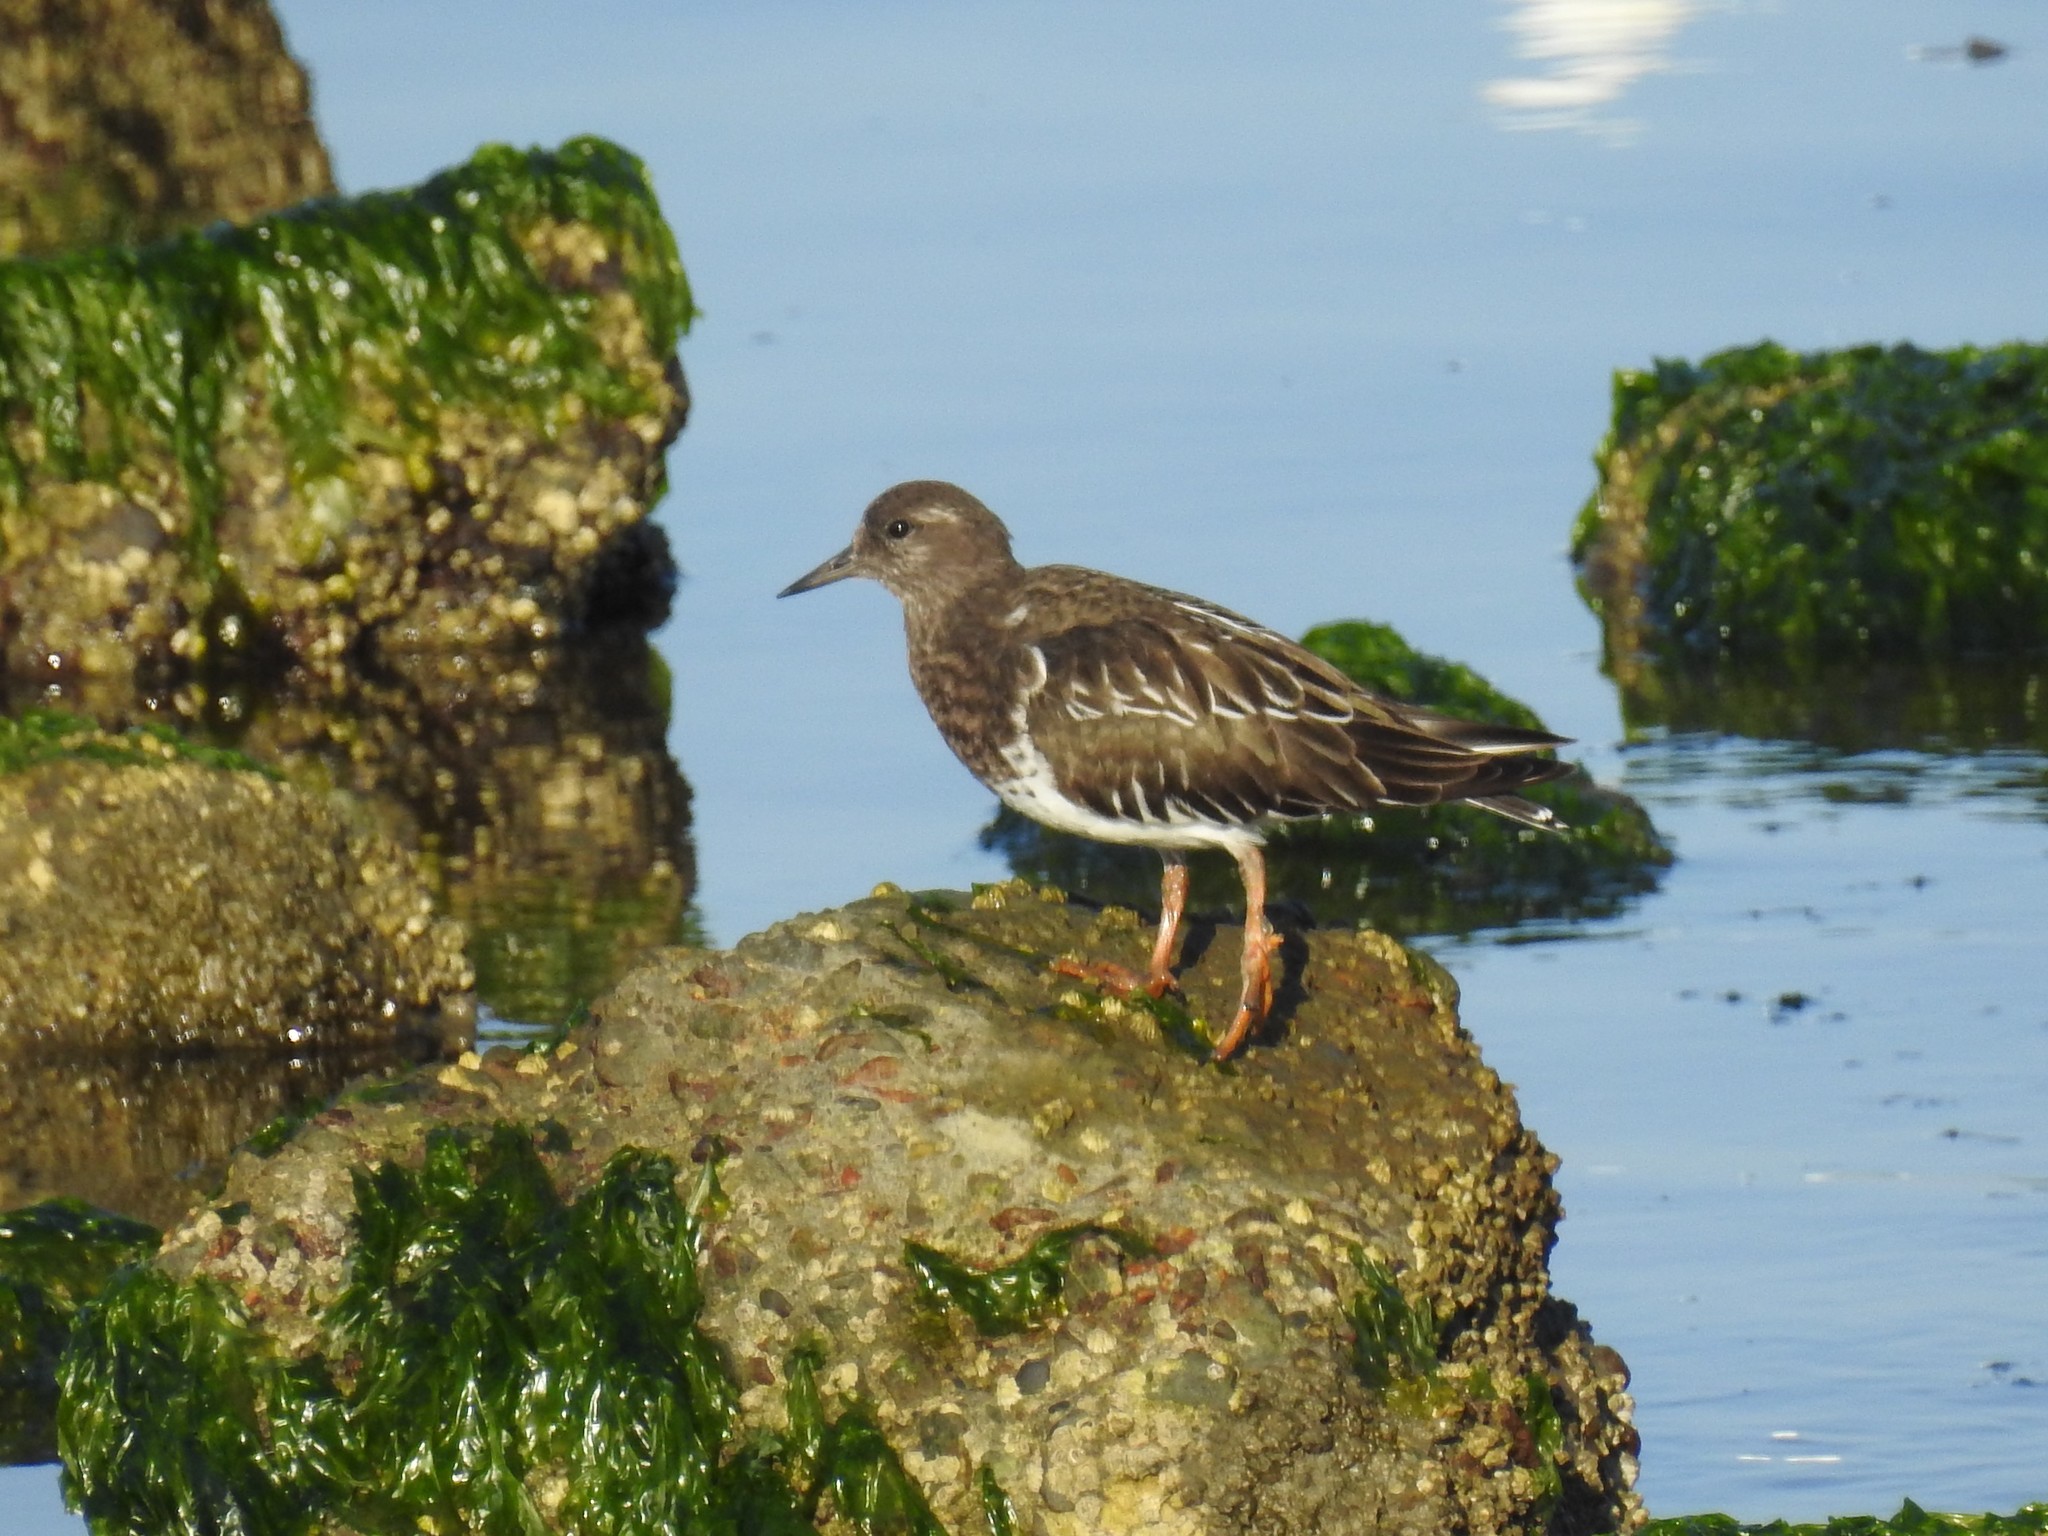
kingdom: Animalia
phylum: Chordata
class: Aves
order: Charadriiformes
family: Scolopacidae
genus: Arenaria
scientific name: Arenaria melanocephala
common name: Black turnstone
